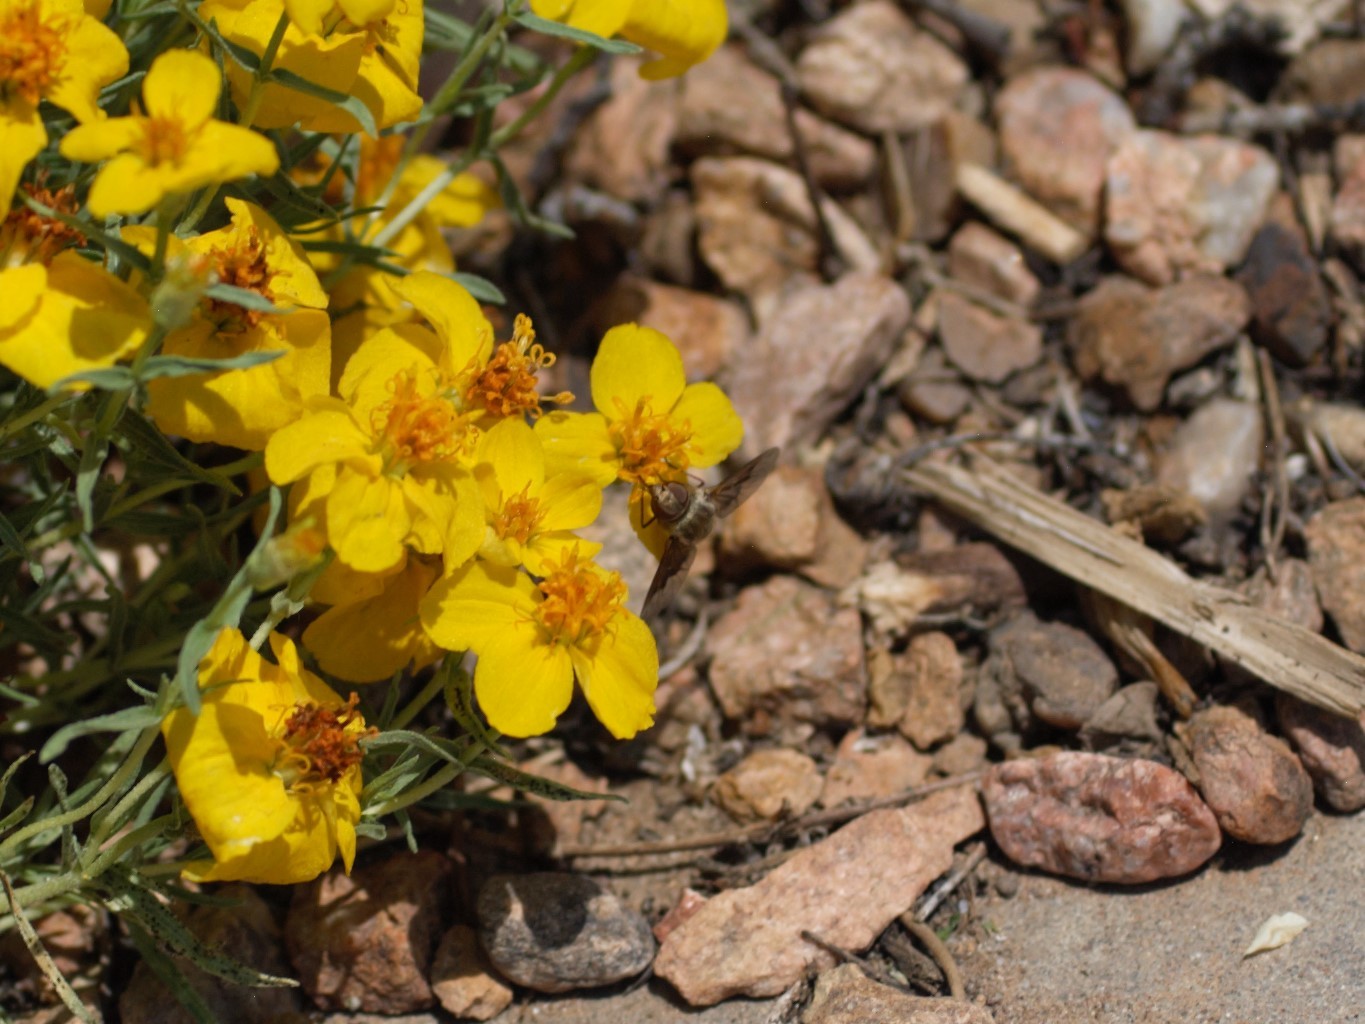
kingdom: Animalia
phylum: Arthropoda
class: Insecta
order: Diptera
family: Bombyliidae
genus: Paravilla
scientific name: Paravilla
